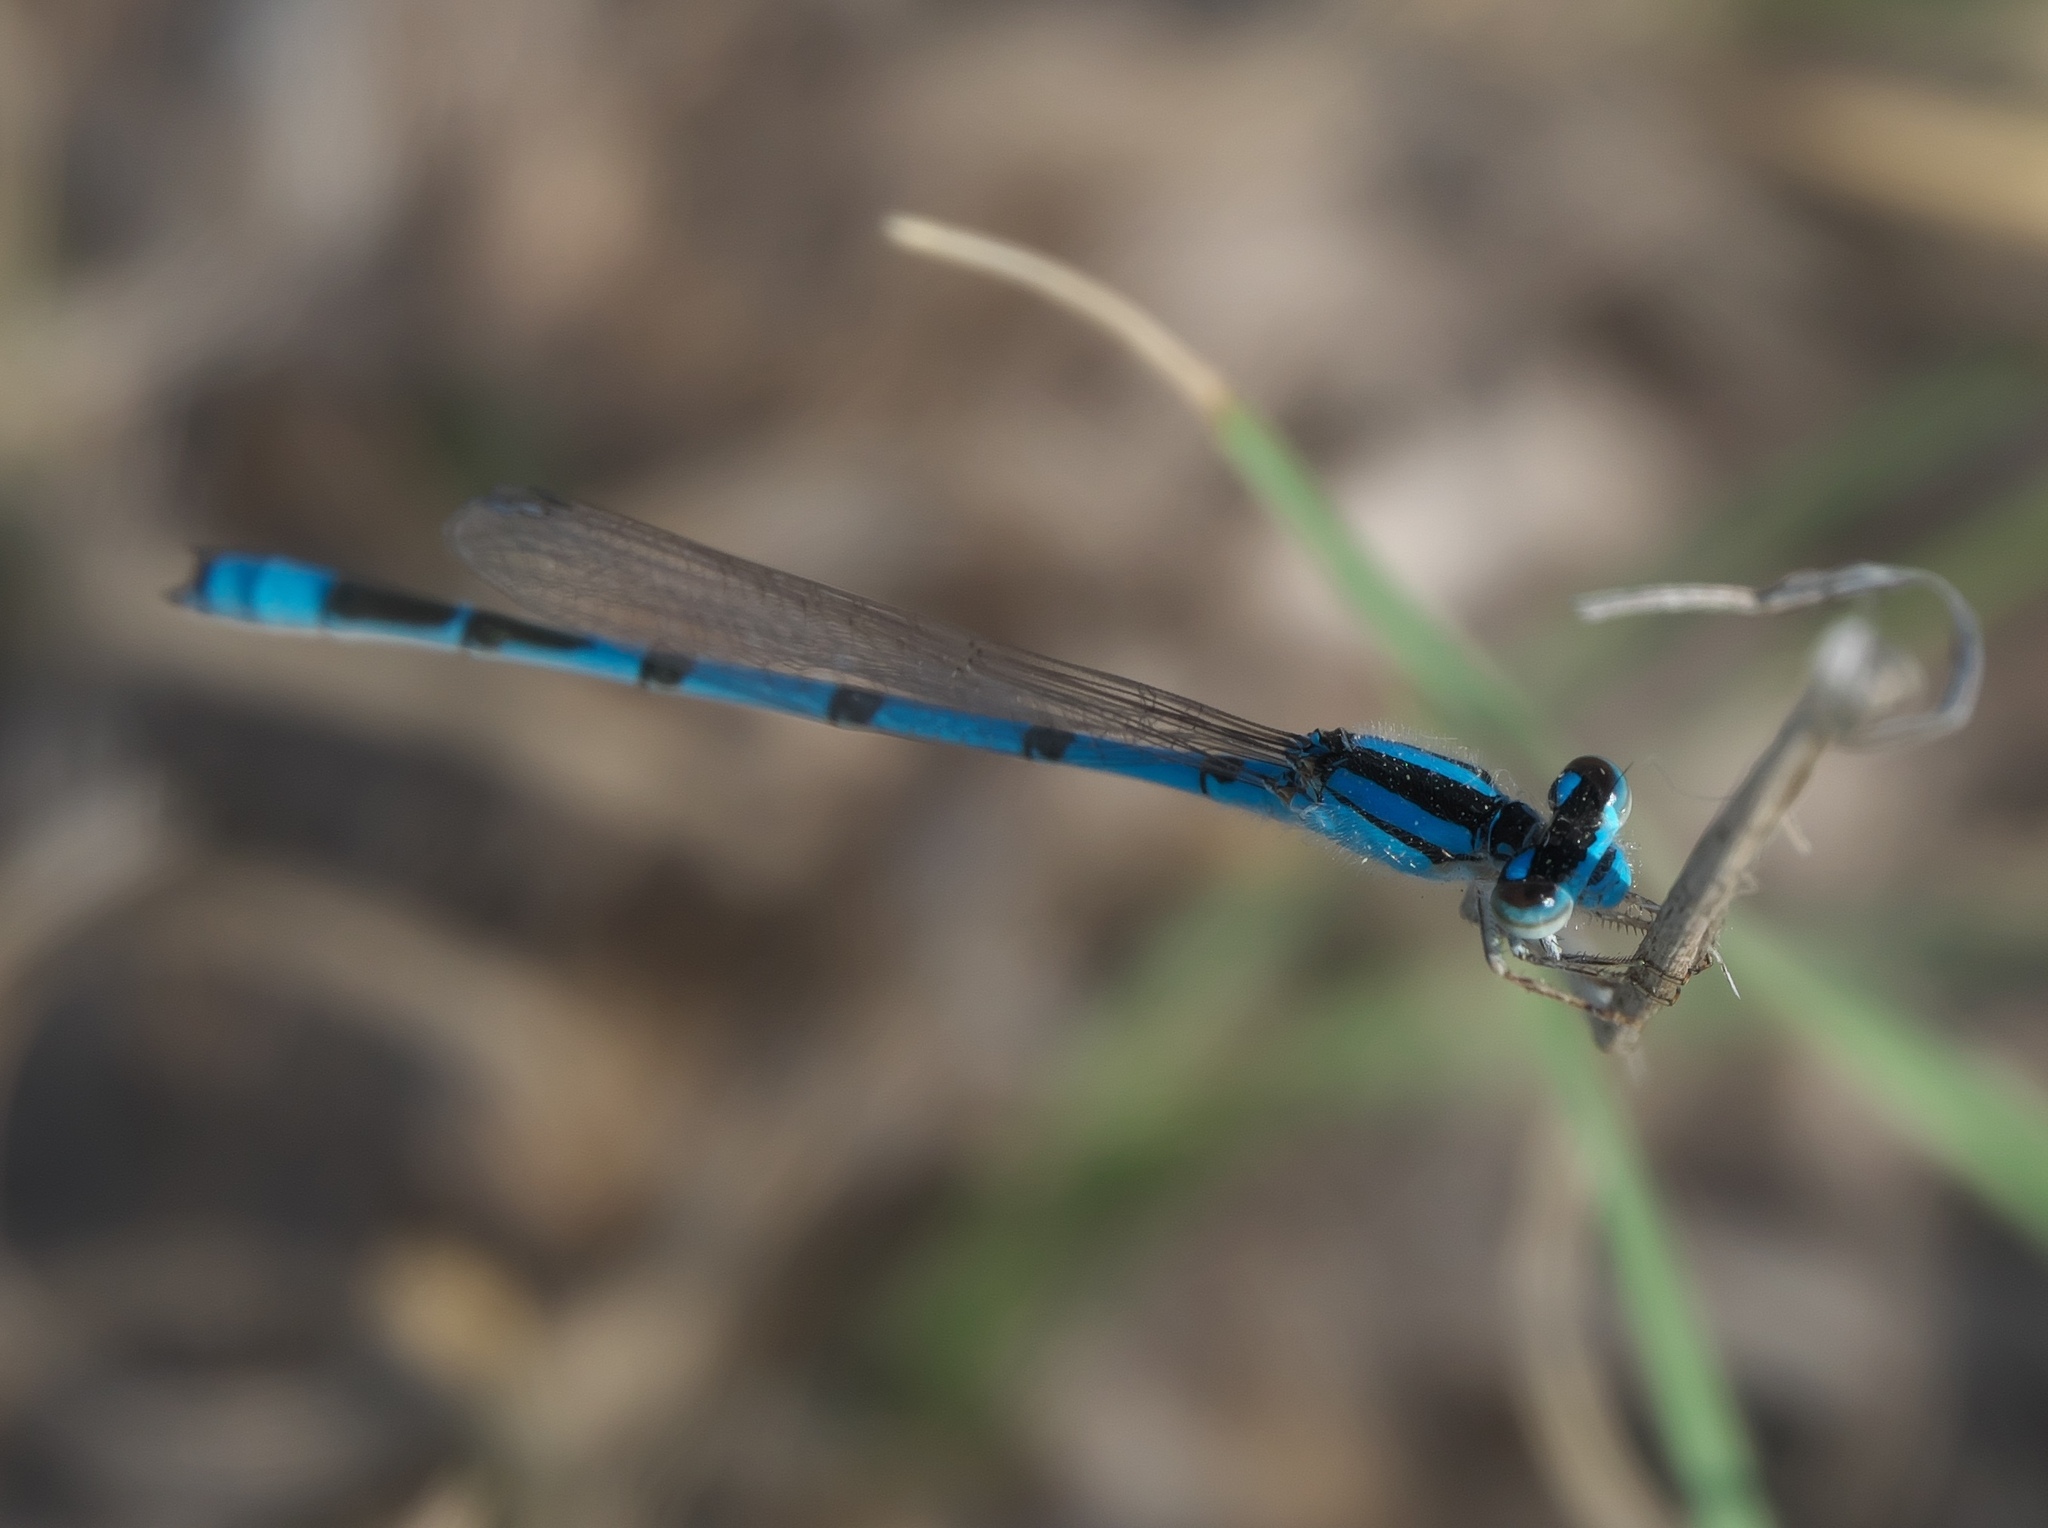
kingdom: Animalia
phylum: Arthropoda
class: Insecta
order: Odonata
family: Coenagrionidae
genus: Enallagma
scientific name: Enallagma civile
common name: Damselfly
